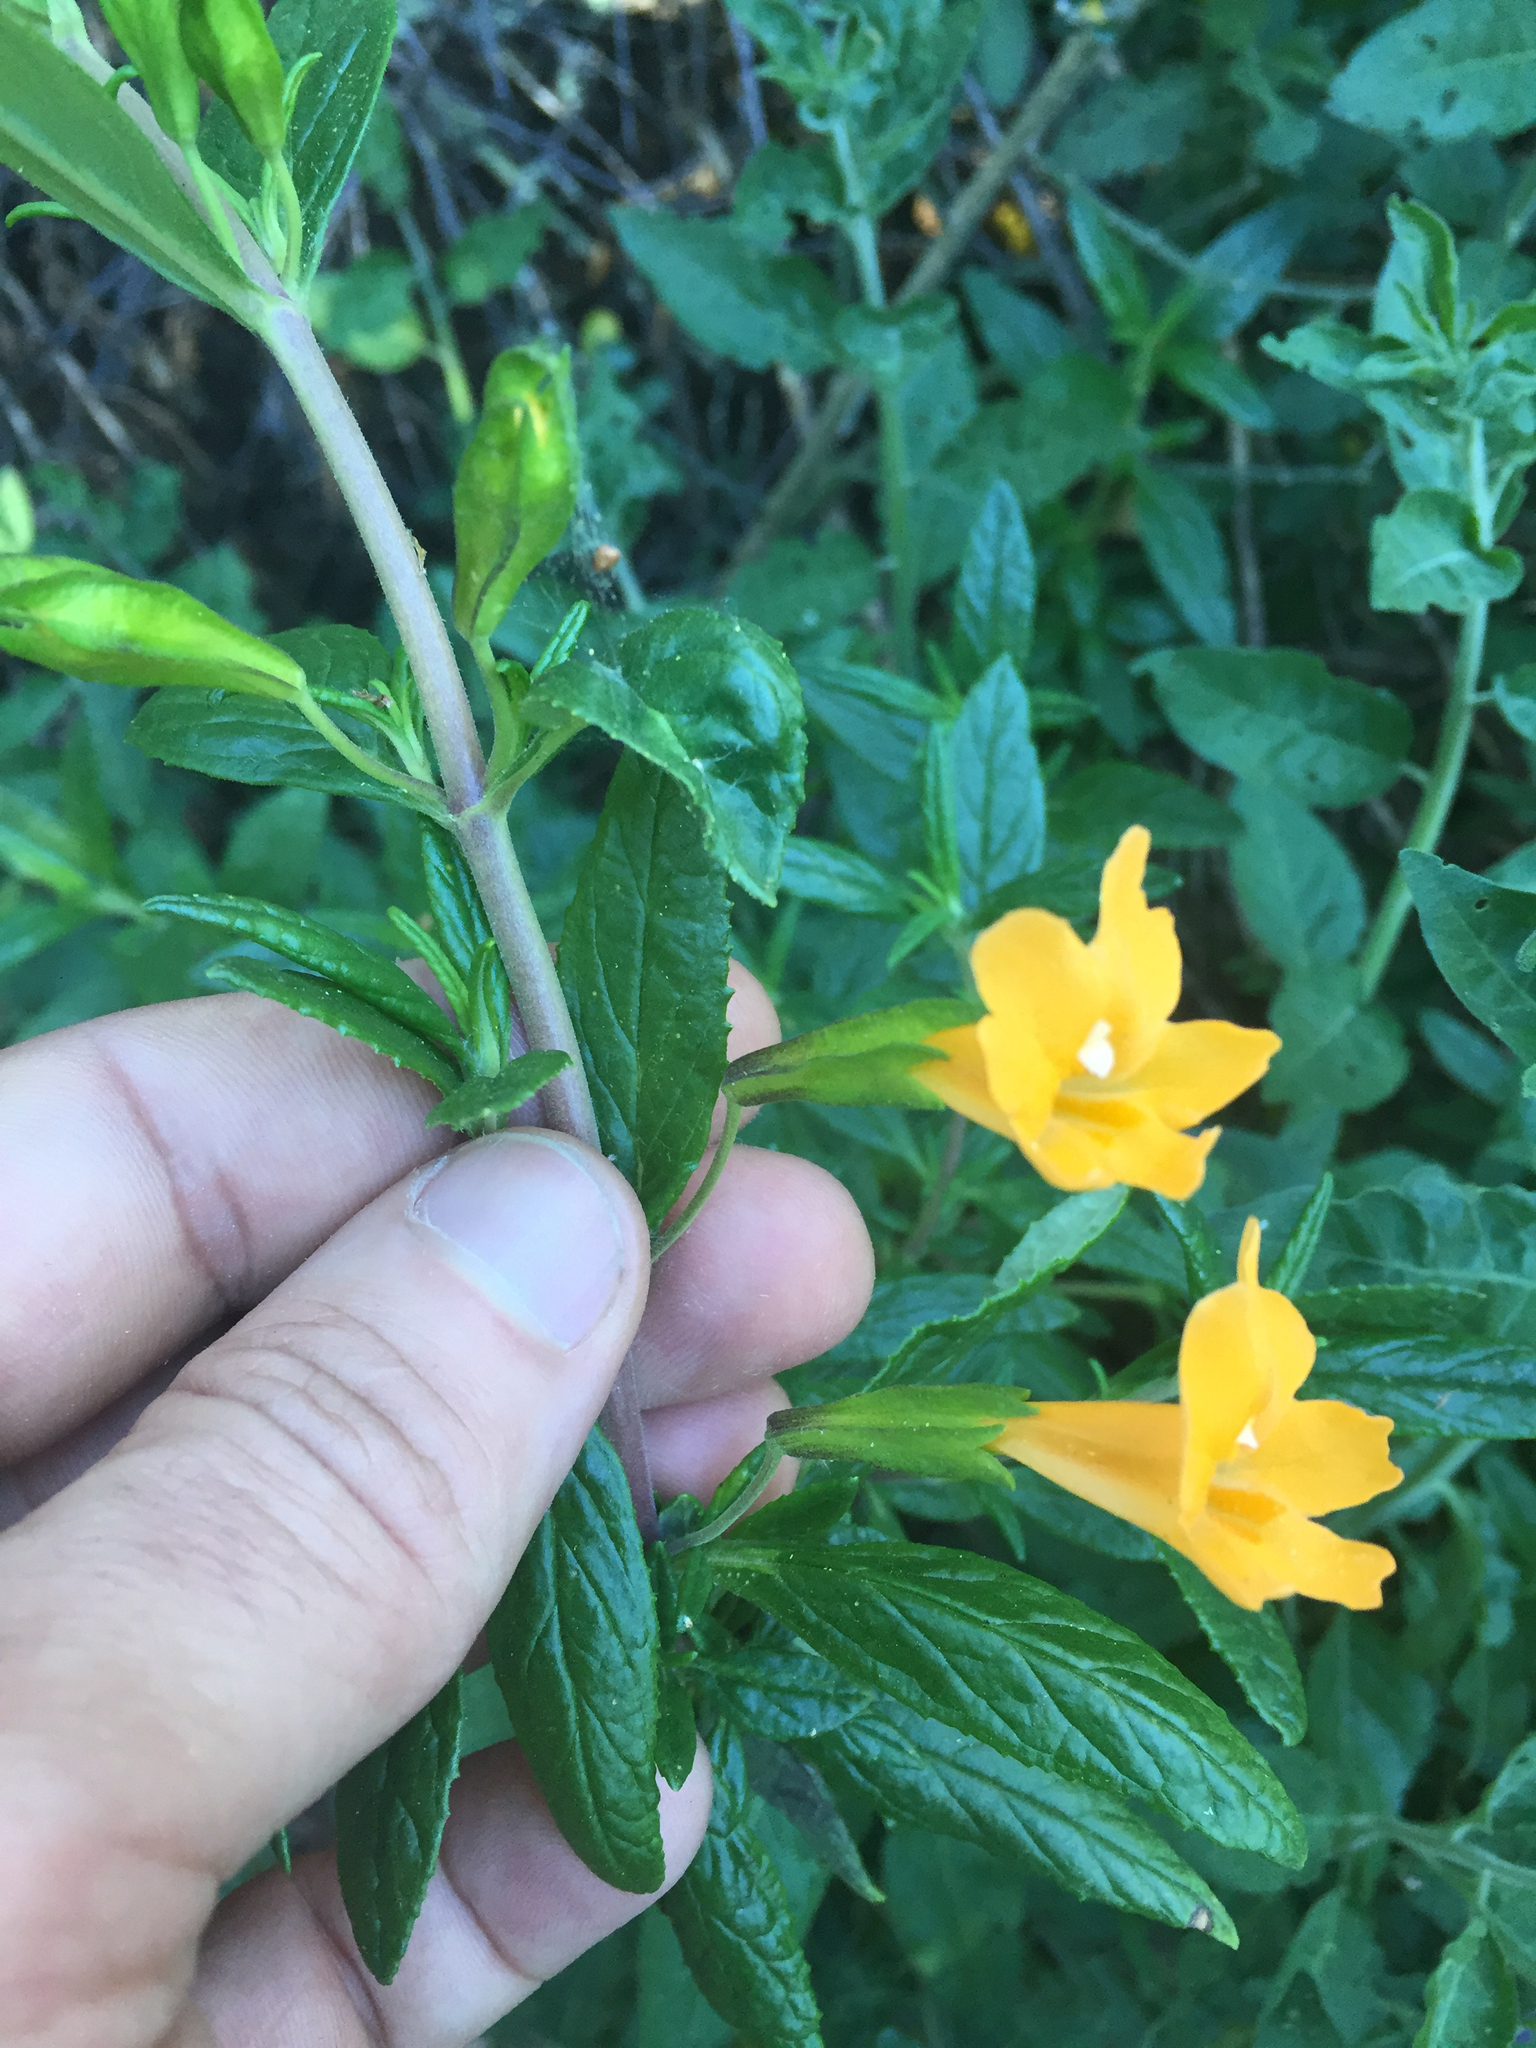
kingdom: Plantae
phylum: Tracheophyta
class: Magnoliopsida
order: Lamiales
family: Phrymaceae
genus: Diplacus
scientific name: Diplacus aurantiacus
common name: Bush monkey-flower
